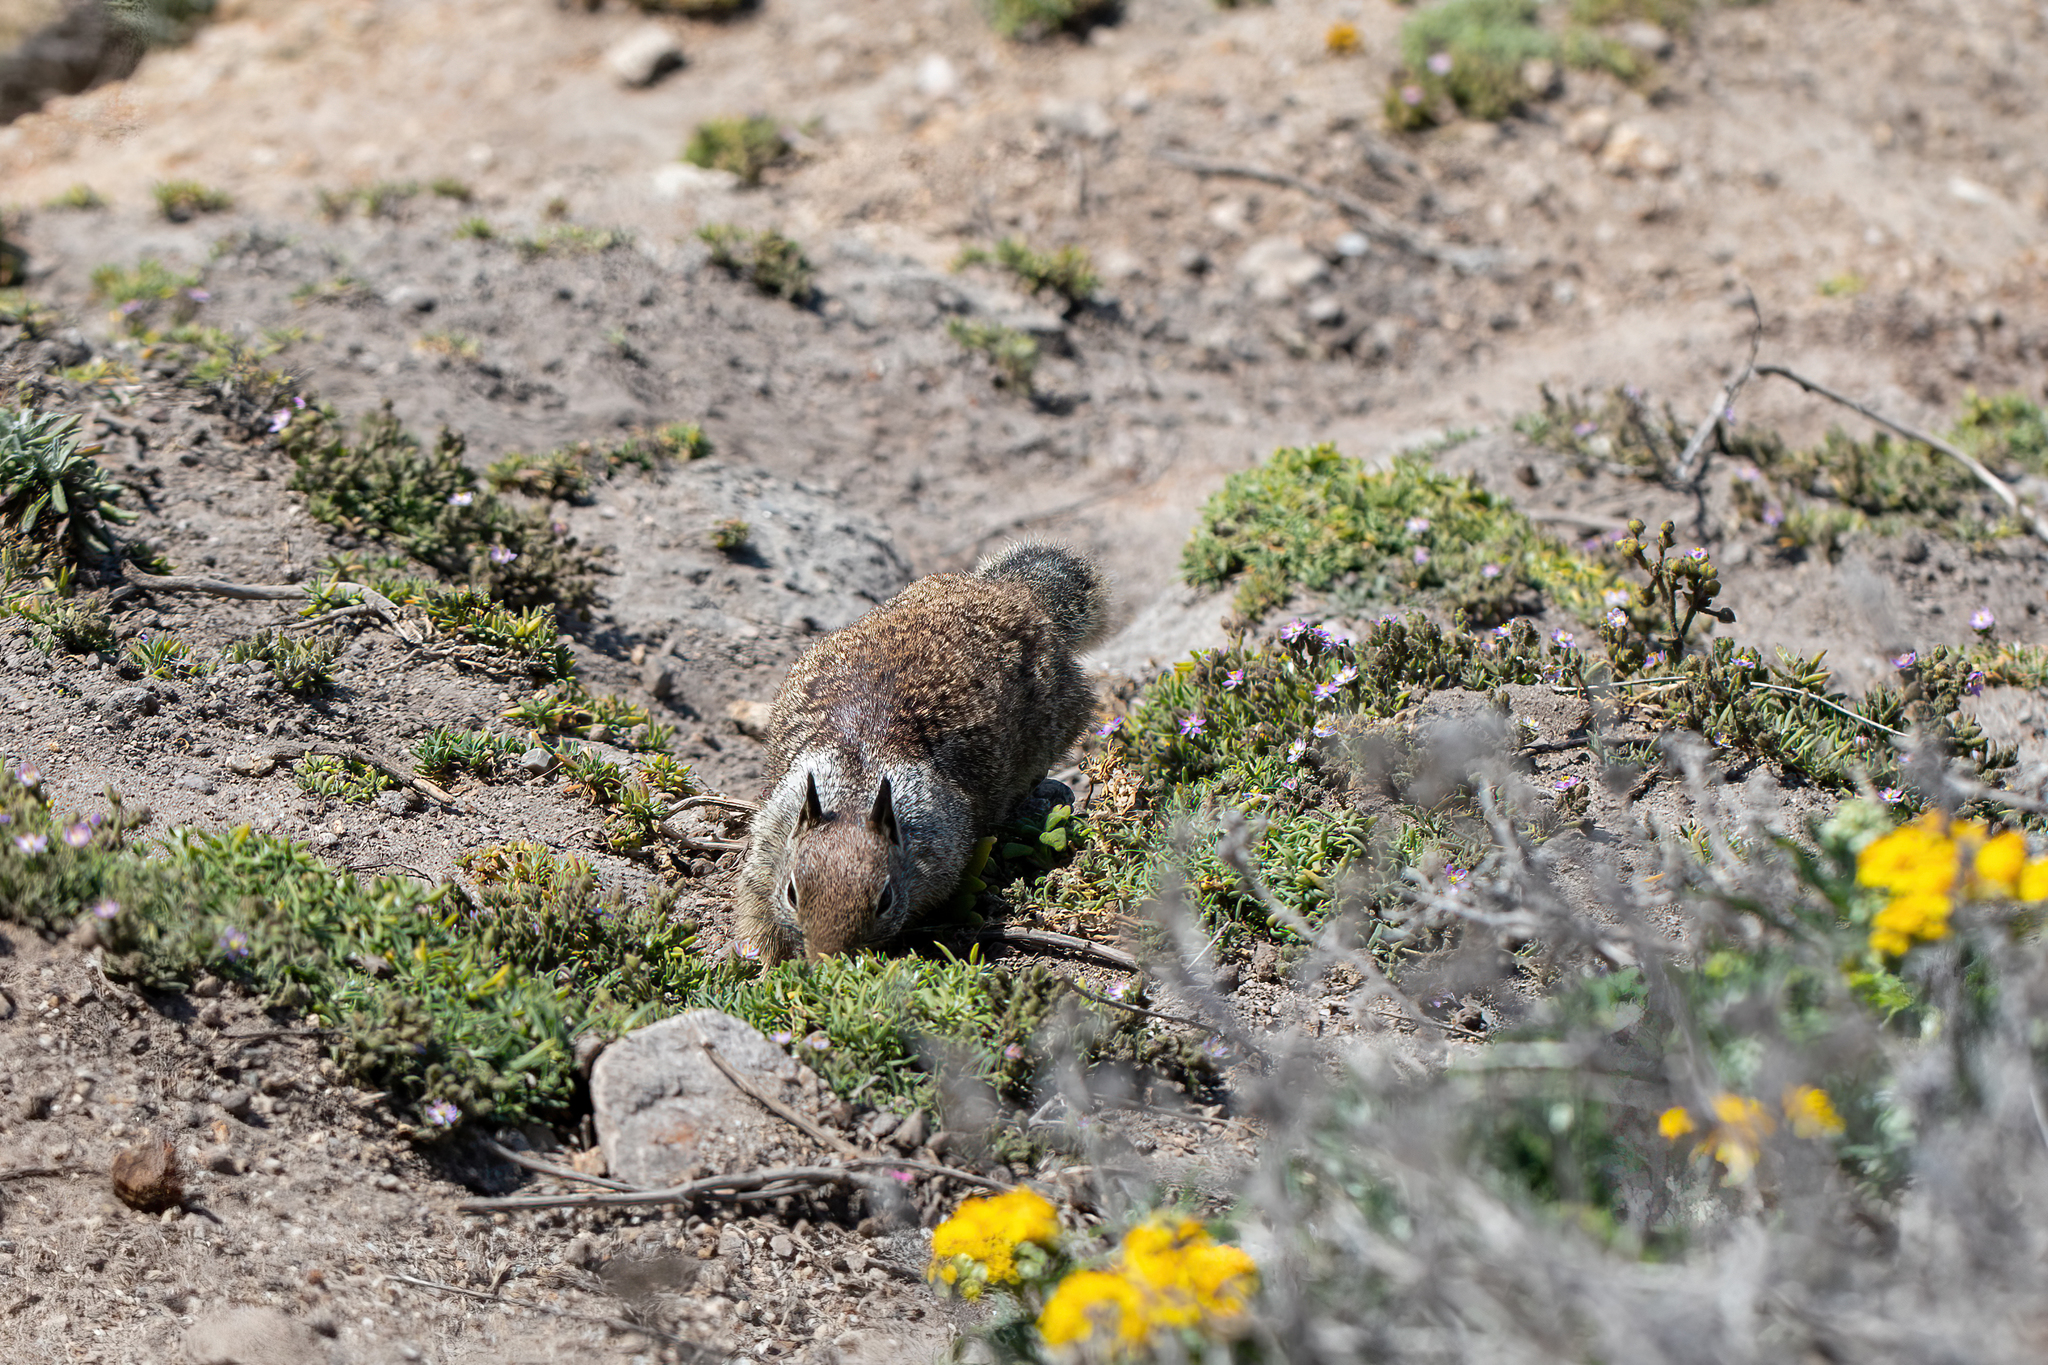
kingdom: Animalia
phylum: Chordata
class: Mammalia
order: Rodentia
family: Sciuridae
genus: Otospermophilus
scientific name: Otospermophilus beecheyi
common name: California ground squirrel
